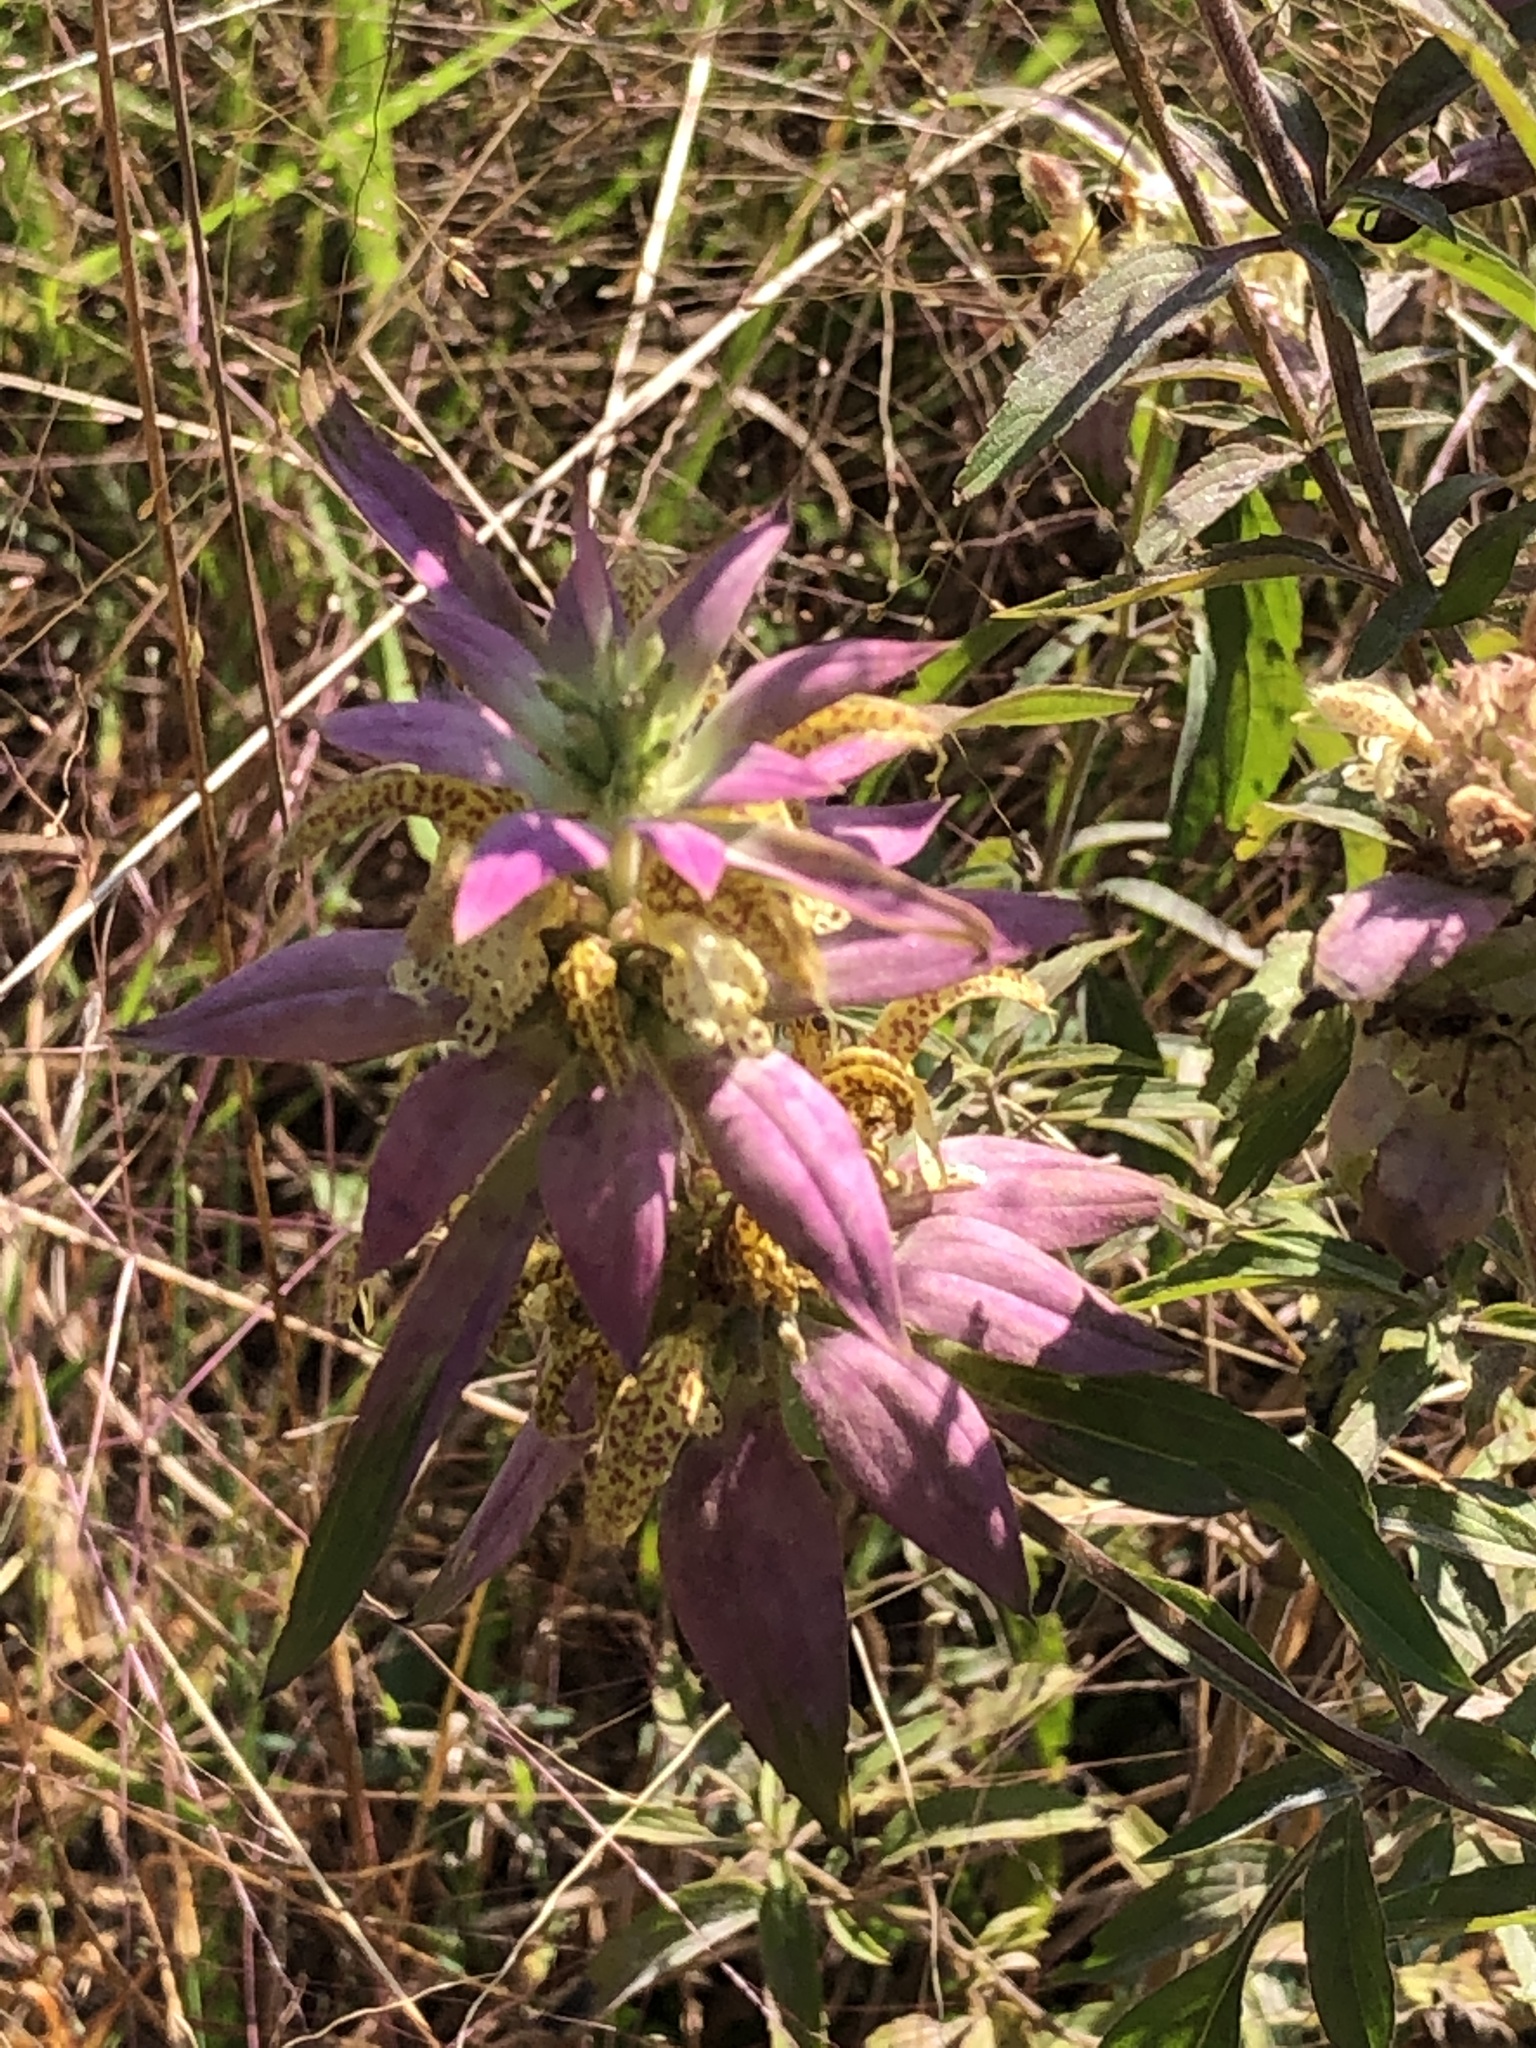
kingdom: Plantae
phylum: Tracheophyta
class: Magnoliopsida
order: Lamiales
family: Lamiaceae
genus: Monarda
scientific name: Monarda punctata
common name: Dotted monarda
